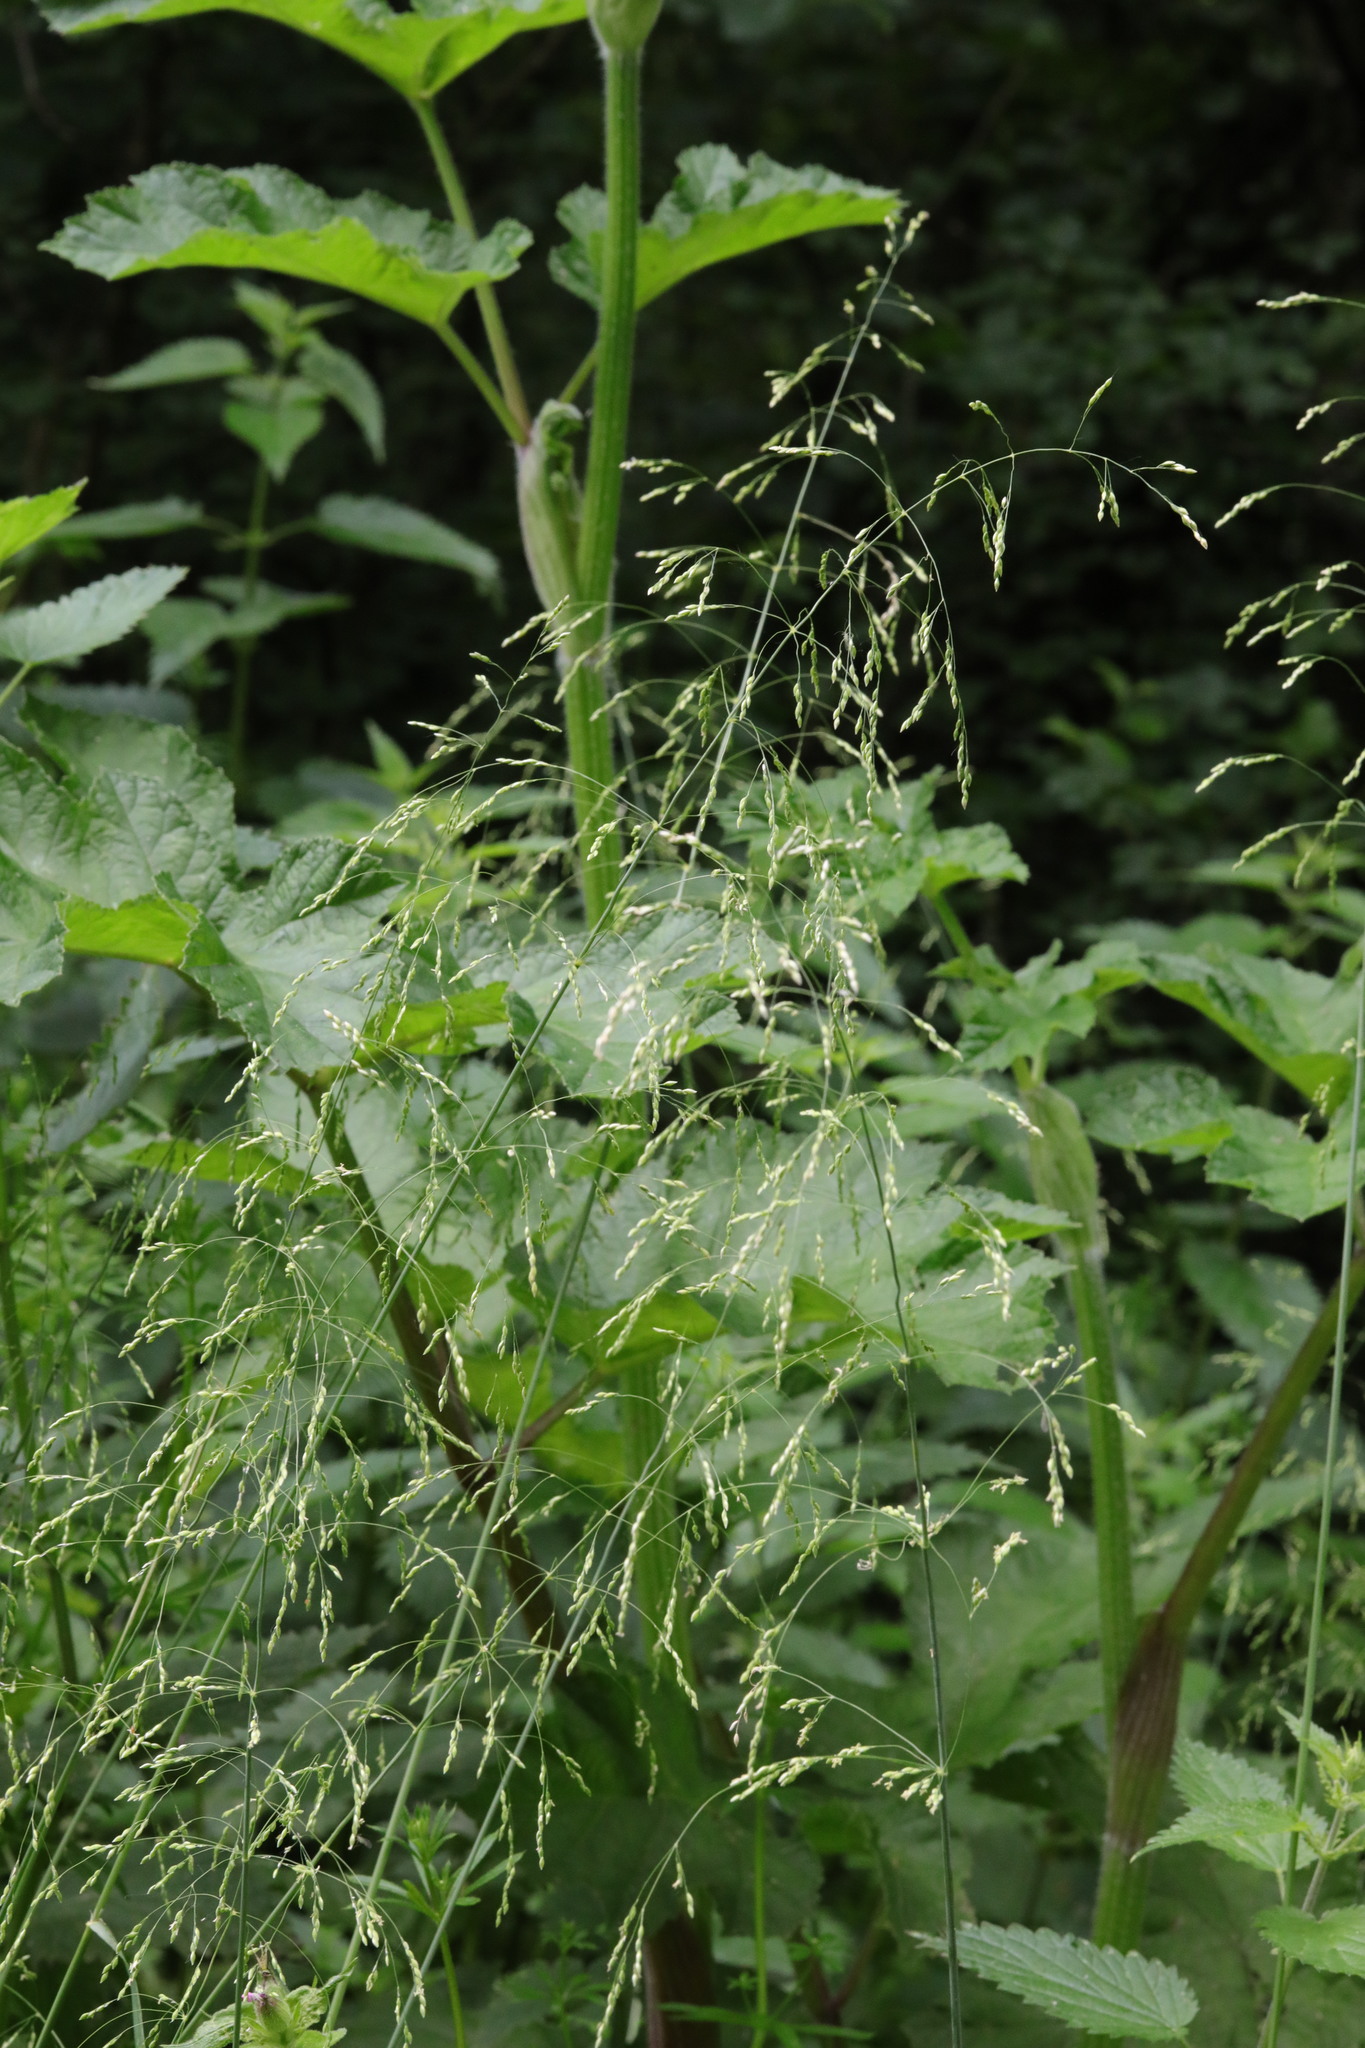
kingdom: Plantae
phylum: Tracheophyta
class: Liliopsida
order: Poales
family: Poaceae
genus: Milium
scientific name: Milium effusum
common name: Wood millet
